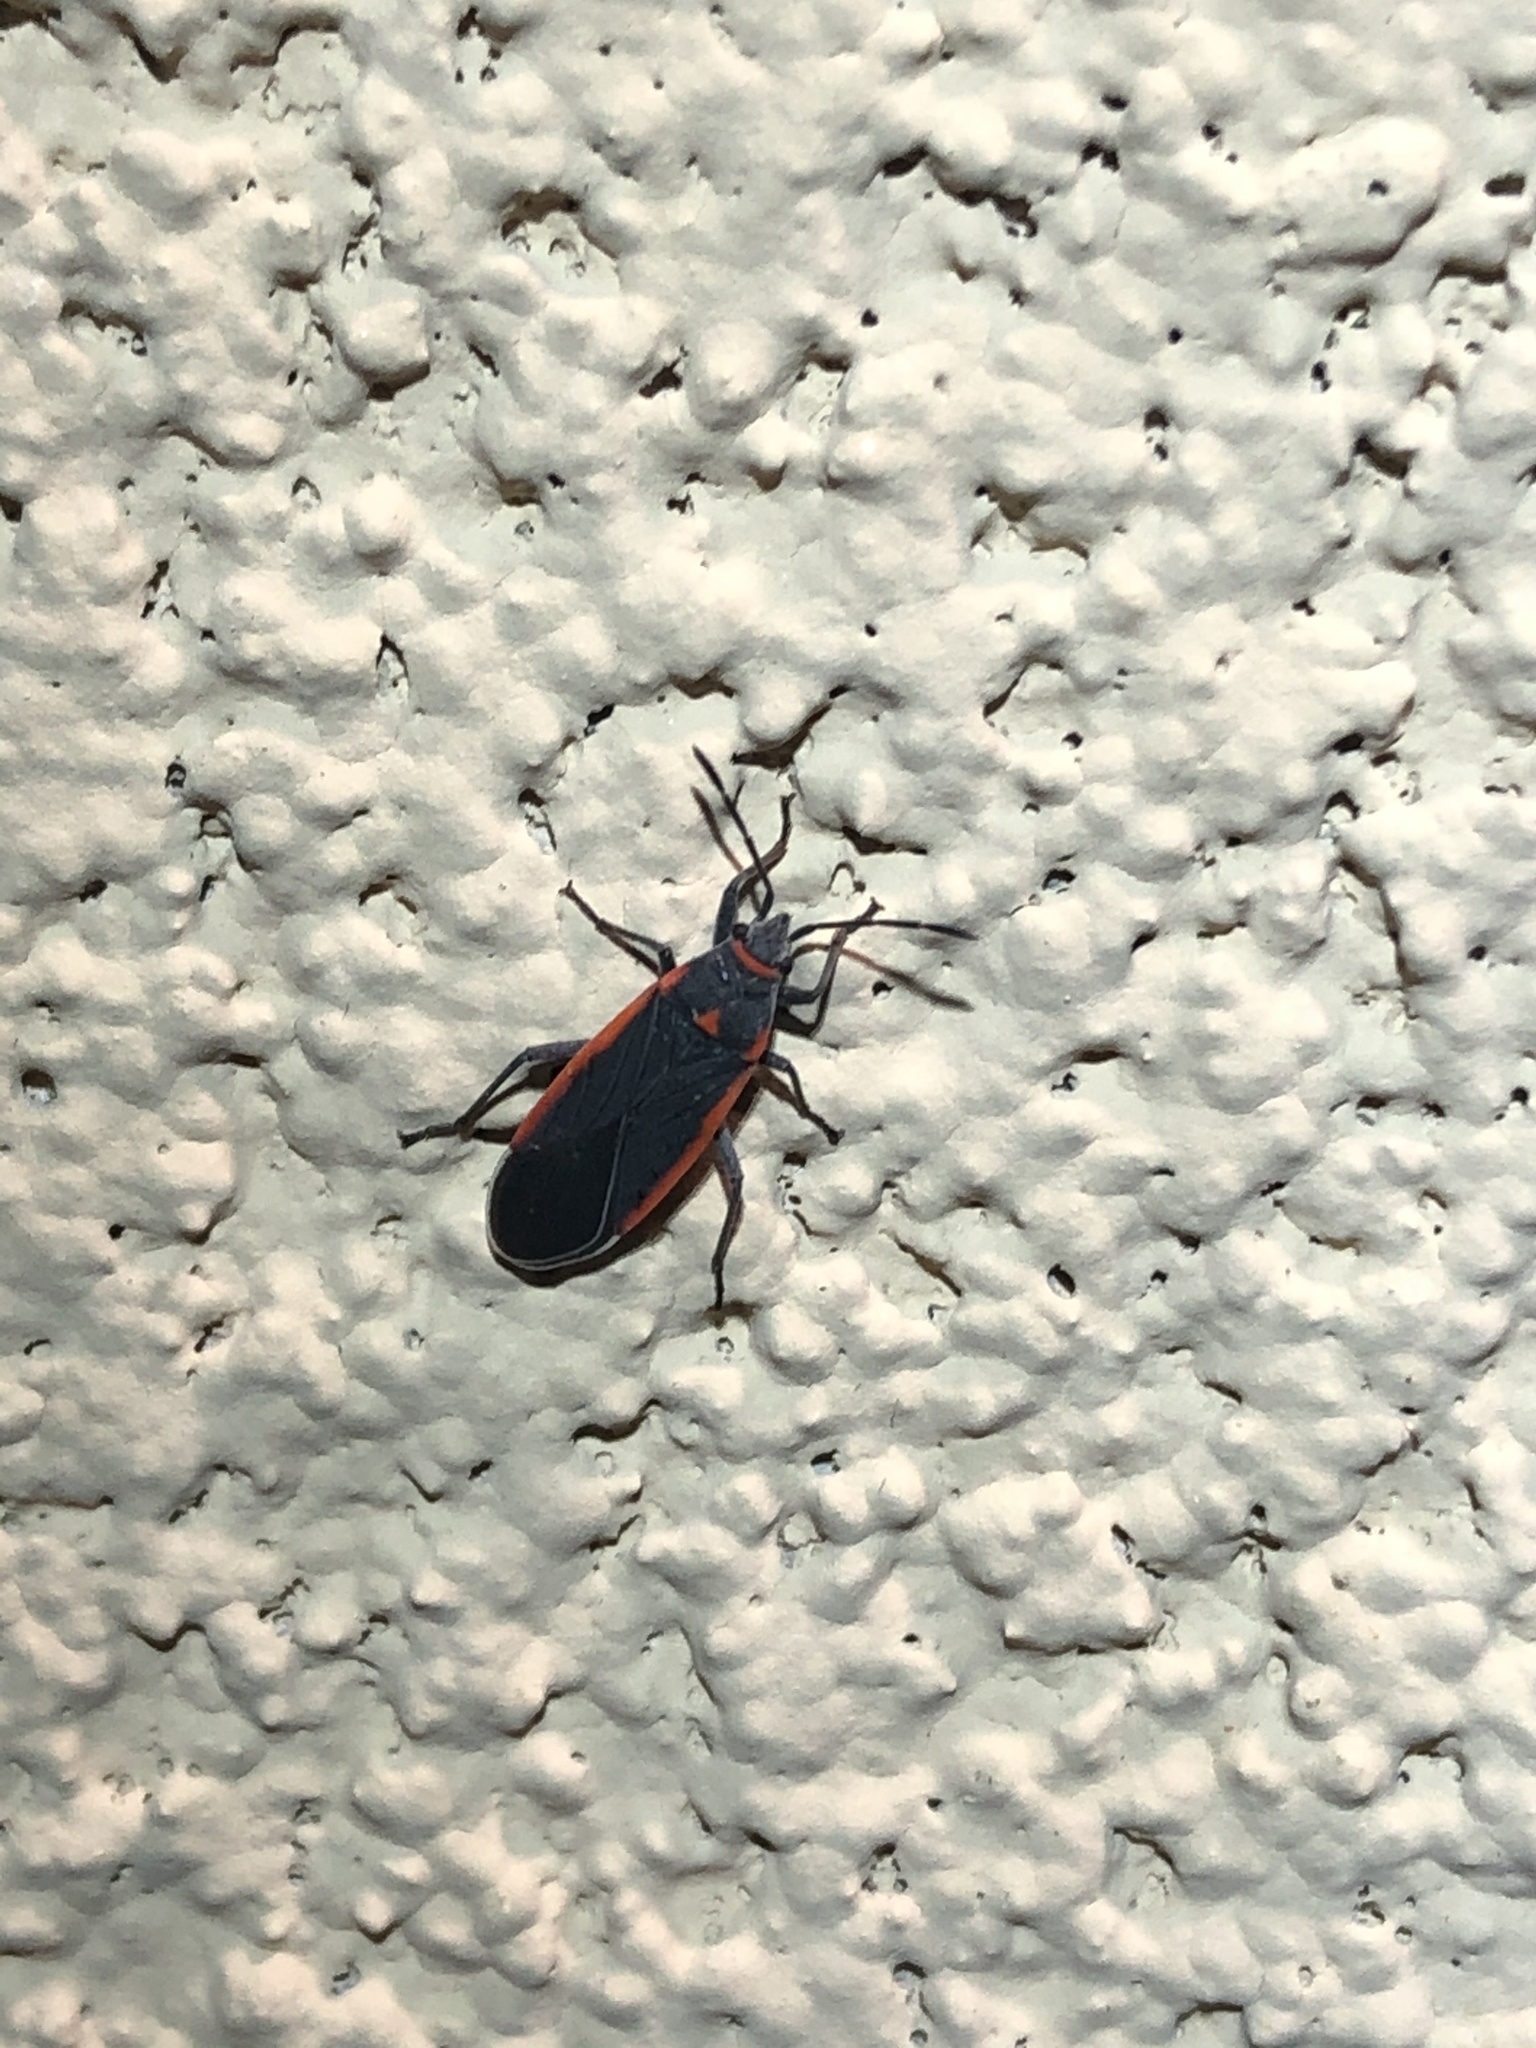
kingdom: Animalia
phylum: Arthropoda
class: Insecta
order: Hemiptera
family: Lygaeidae
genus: Melacoryphus
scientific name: Melacoryphus lateralis
